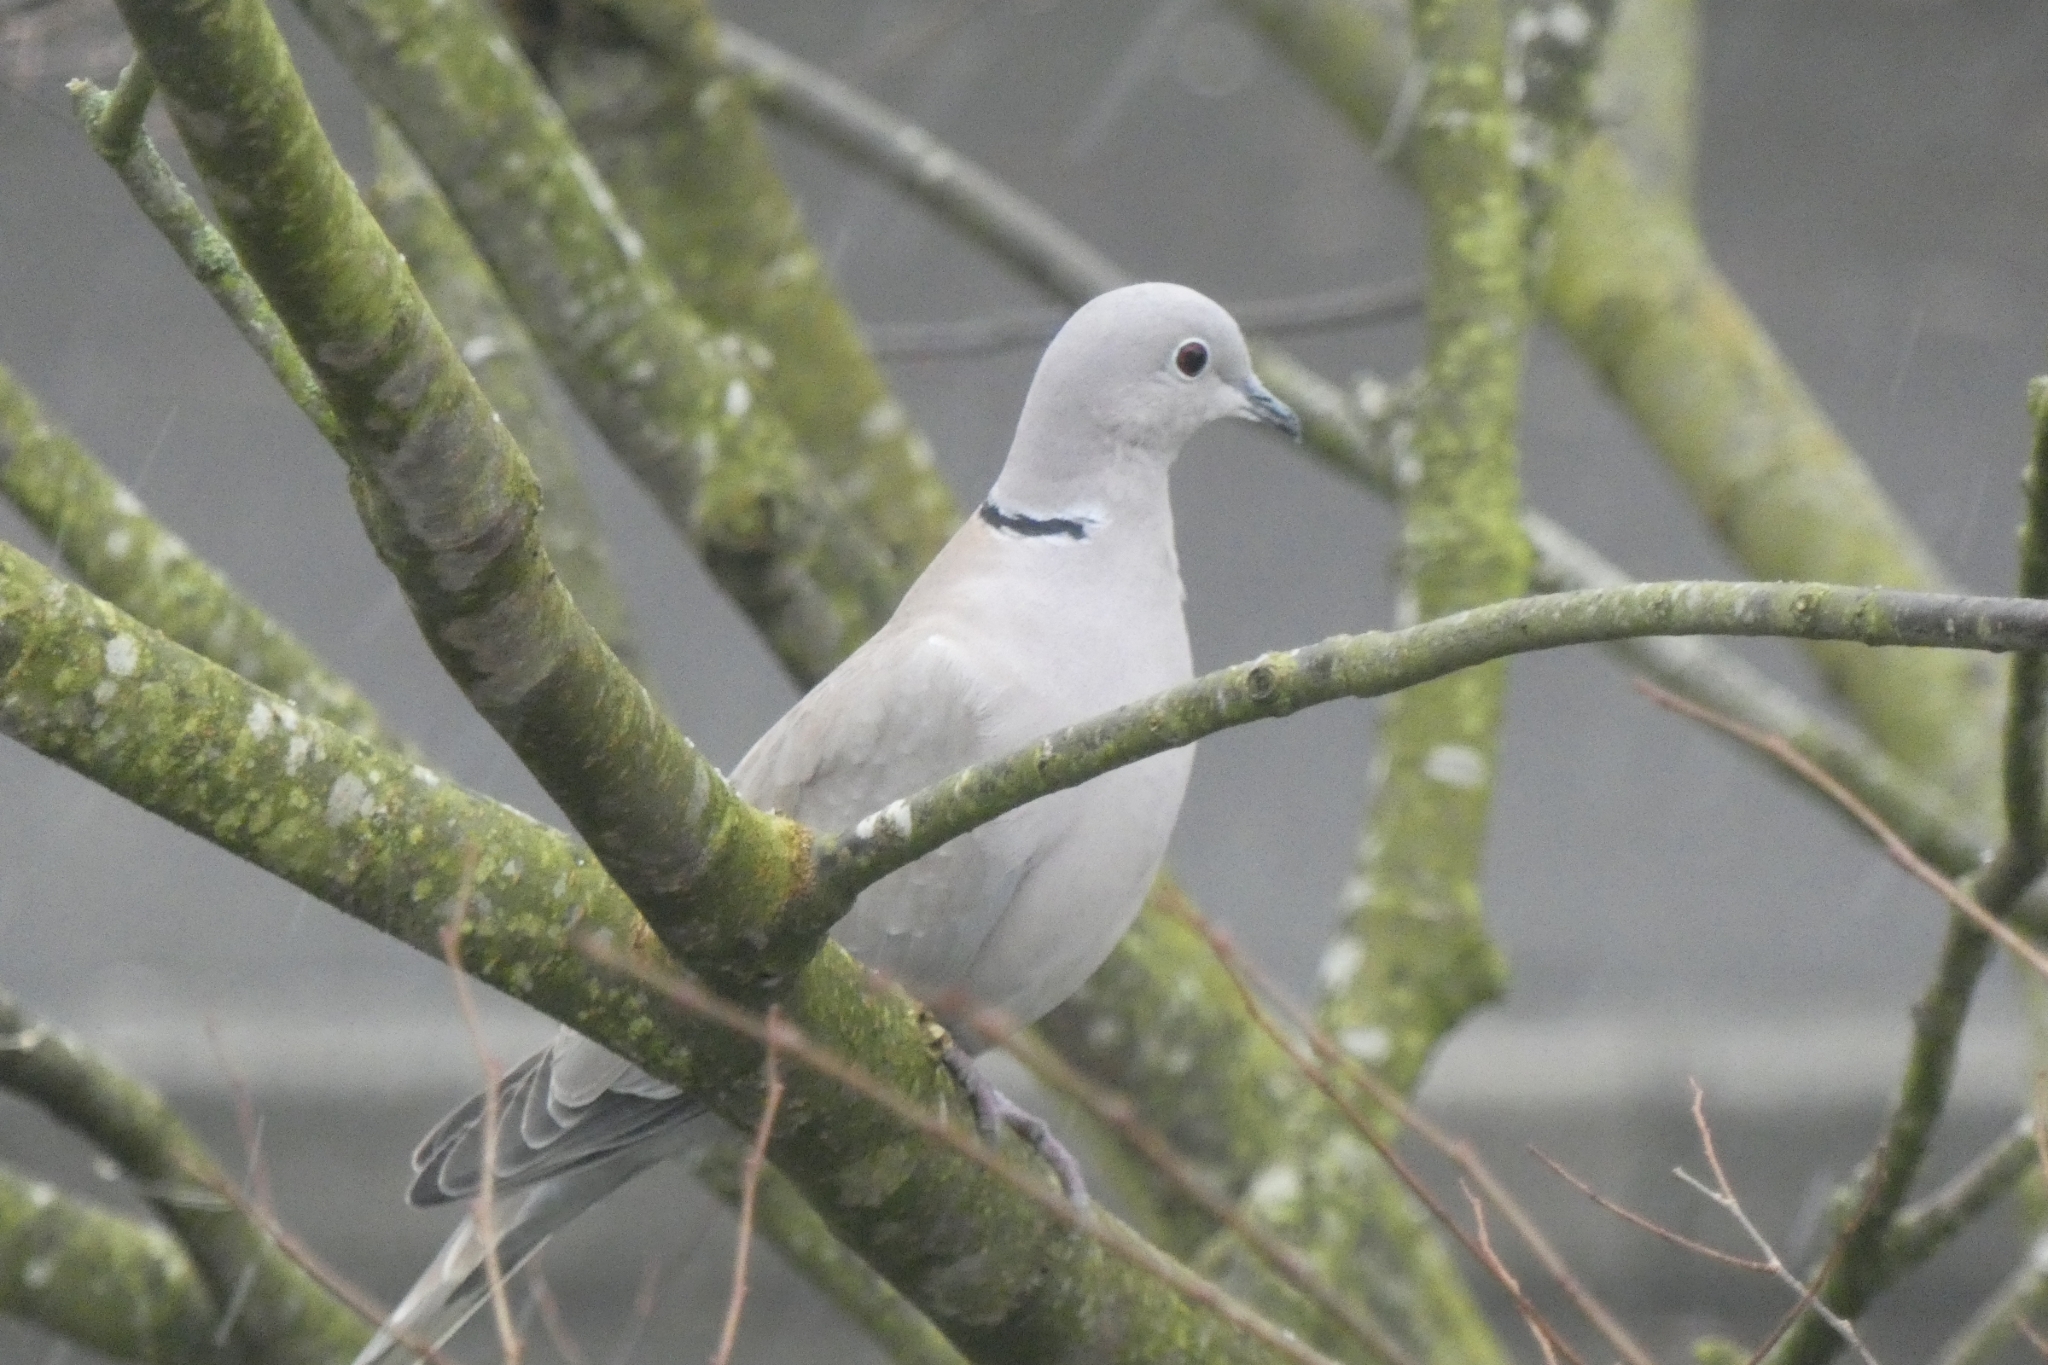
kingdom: Animalia
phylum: Chordata
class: Aves
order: Columbiformes
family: Columbidae
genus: Streptopelia
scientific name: Streptopelia decaocto
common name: Eurasian collared dove
